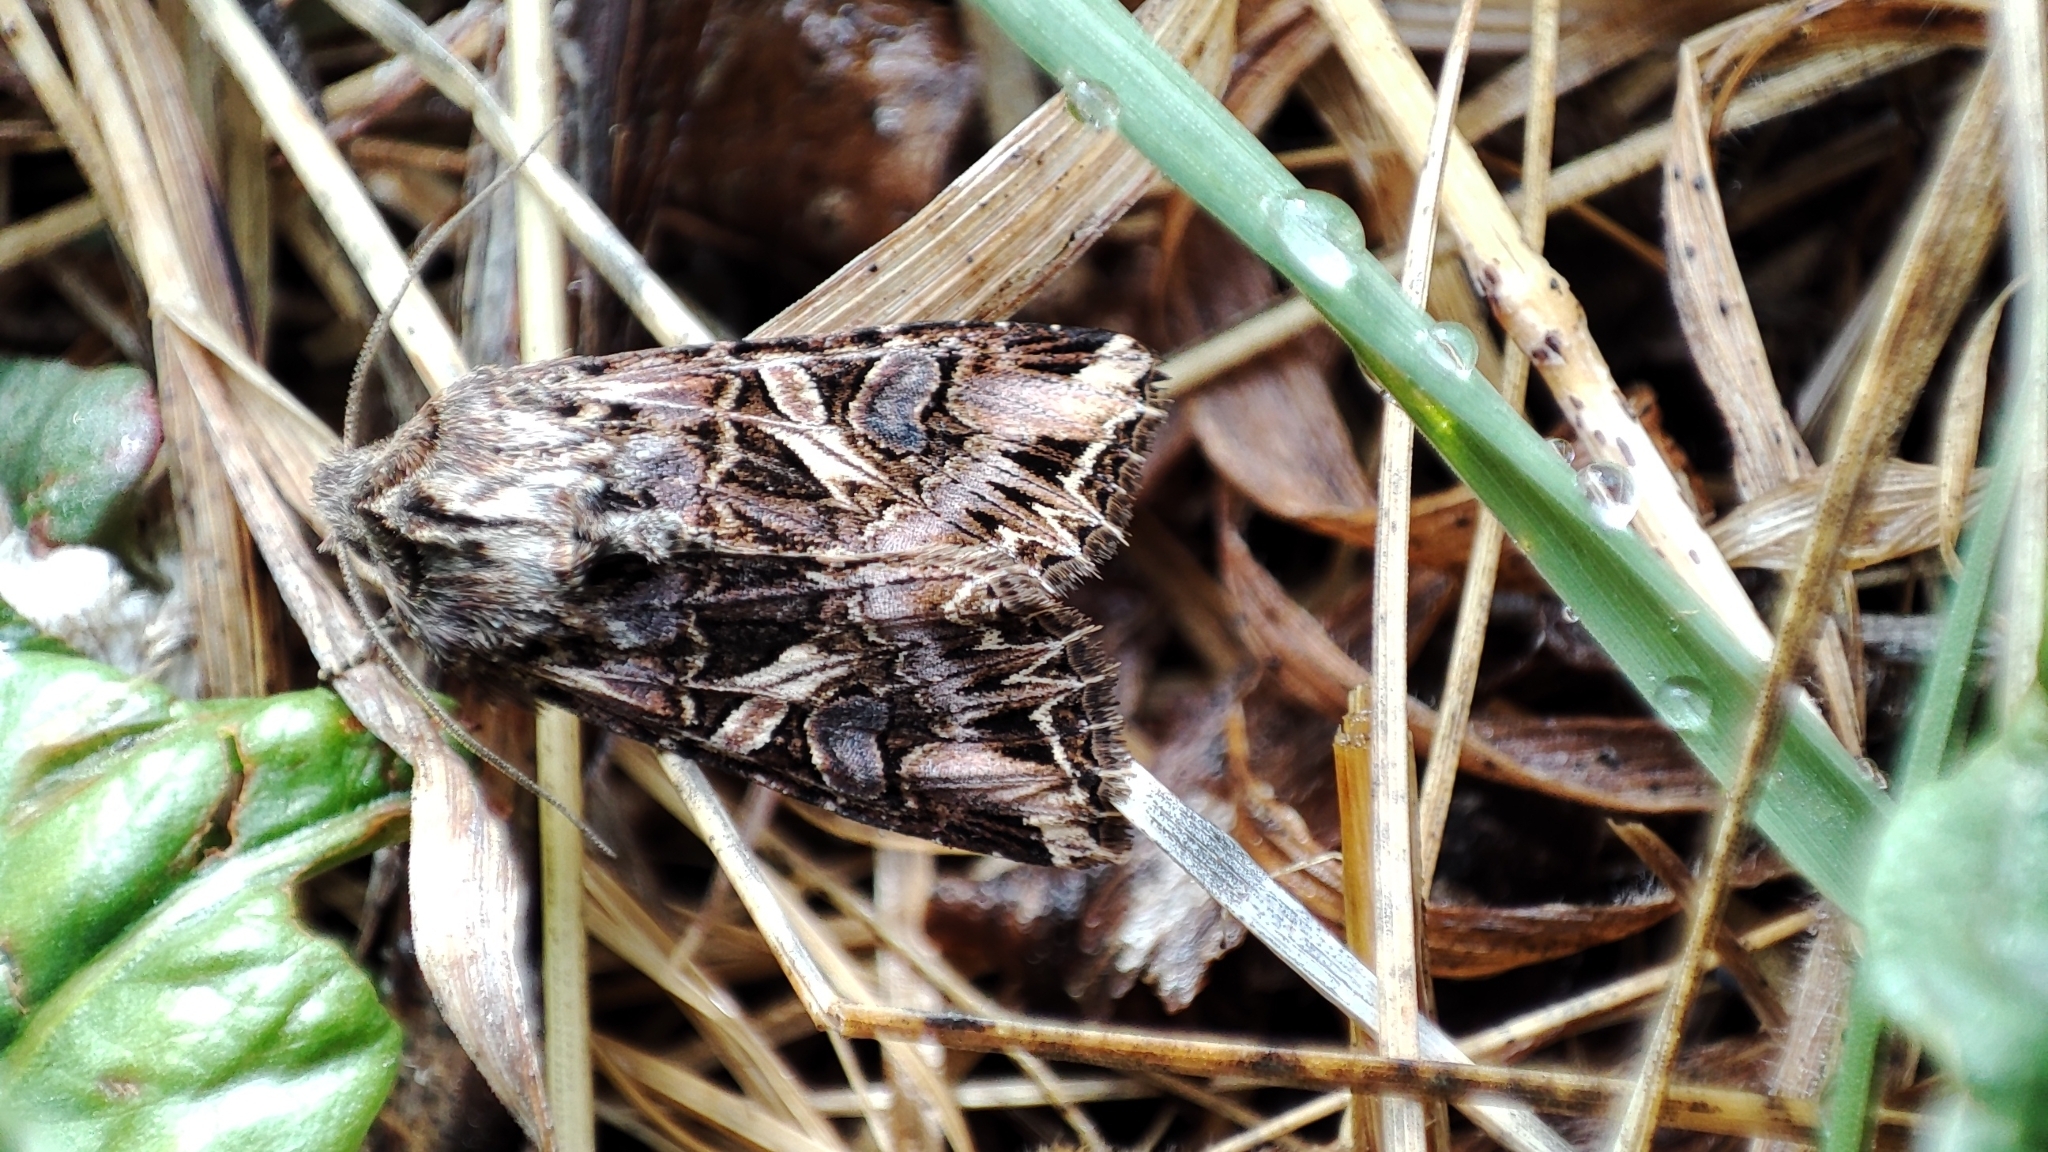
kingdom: Animalia
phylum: Arthropoda
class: Insecta
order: Lepidoptera
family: Noctuidae
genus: Anarta
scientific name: Anarta imperspicua
